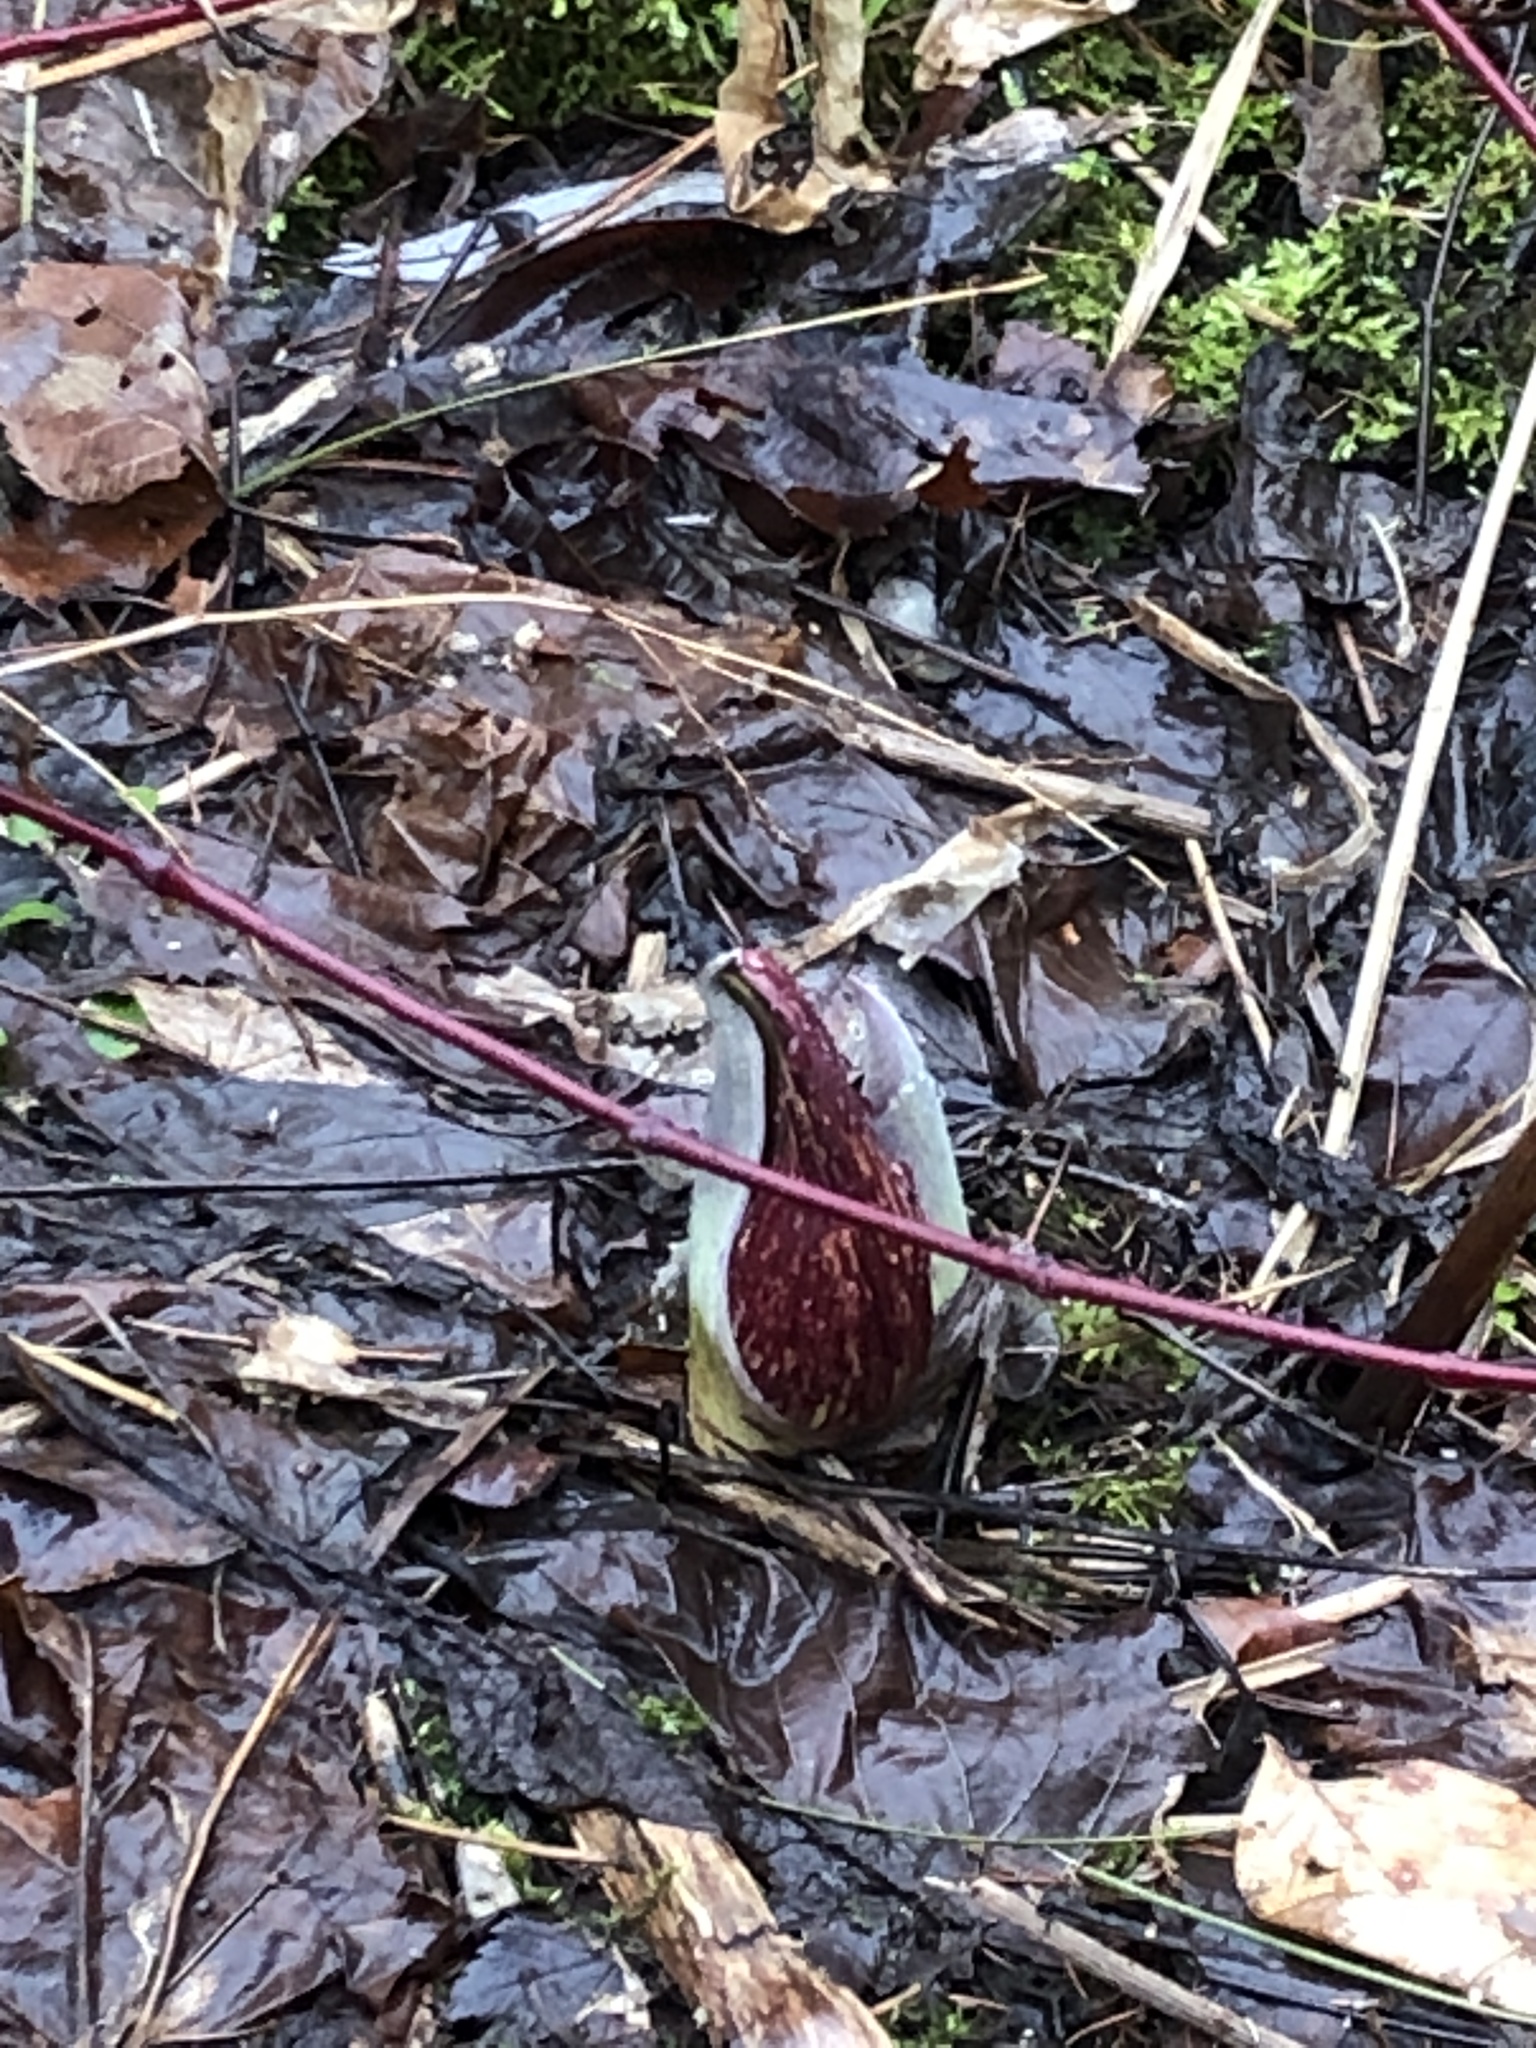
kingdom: Plantae
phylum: Tracheophyta
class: Liliopsida
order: Alismatales
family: Araceae
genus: Symplocarpus
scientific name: Symplocarpus foetidus
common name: Eastern skunk cabbage
